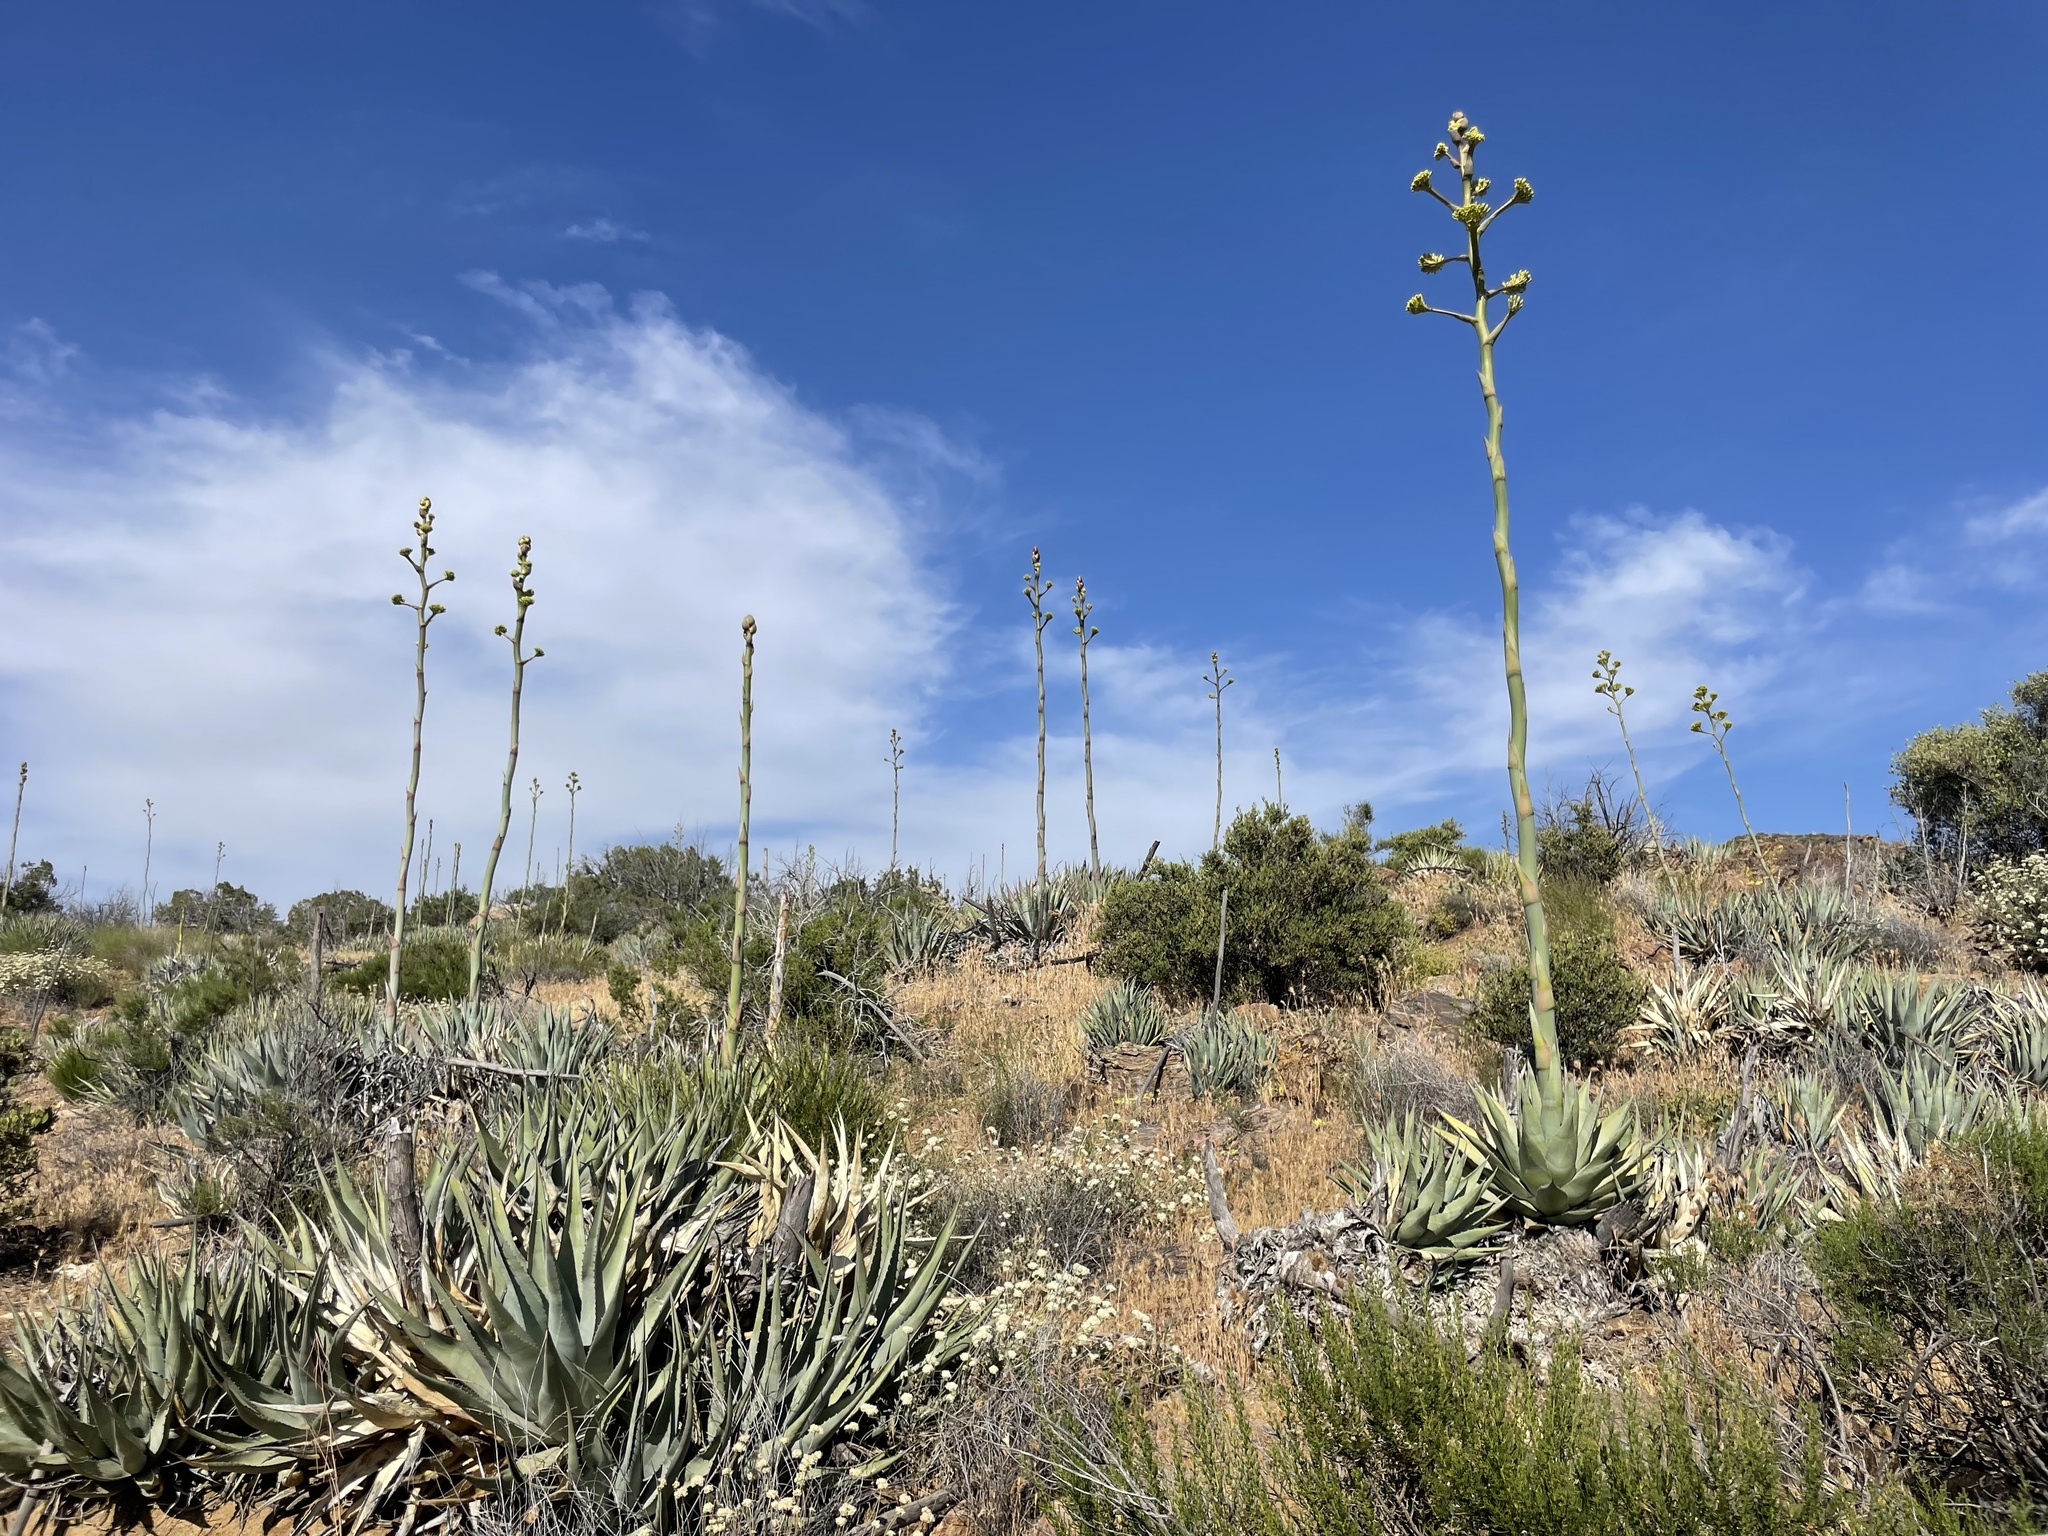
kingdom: Plantae
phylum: Tracheophyta
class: Liliopsida
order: Asparagales
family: Asparagaceae
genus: Agave
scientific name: Agave deserti
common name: Desert agave
